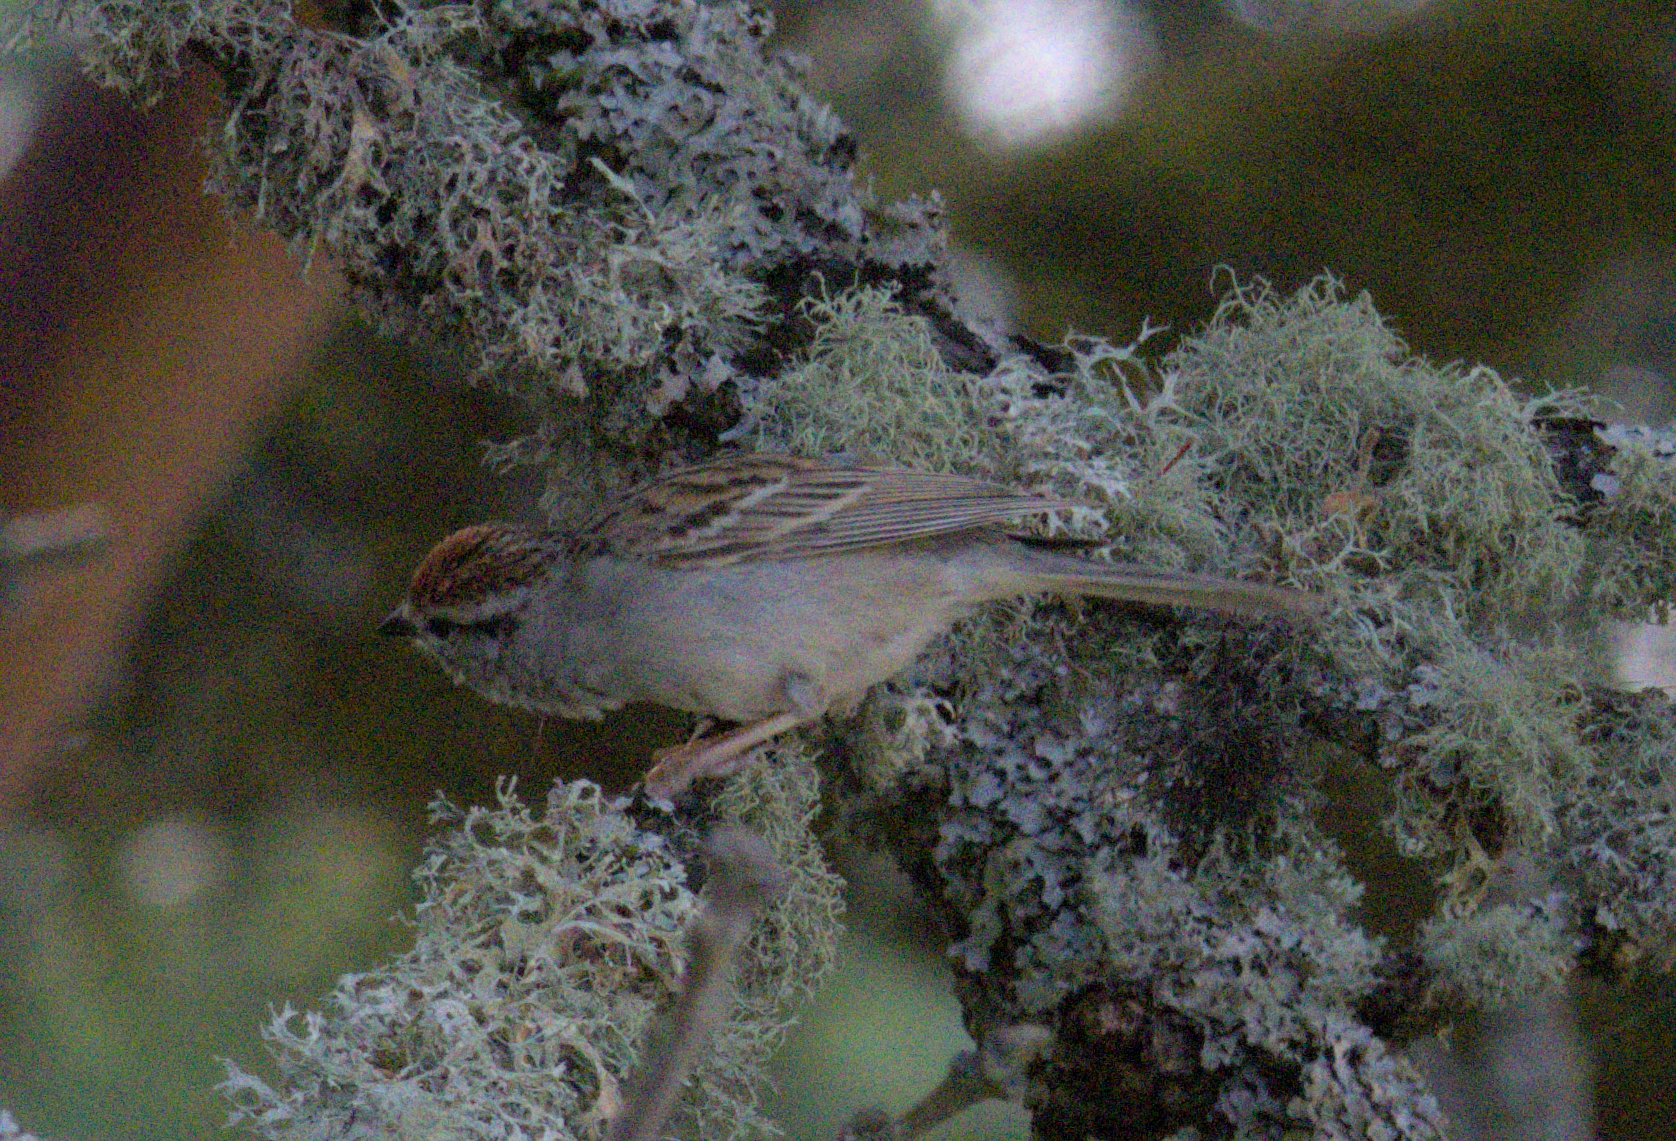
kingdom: Animalia
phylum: Chordata
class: Aves
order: Passeriformes
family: Passerellidae
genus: Spizella
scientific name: Spizella passerina
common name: Chipping sparrow
